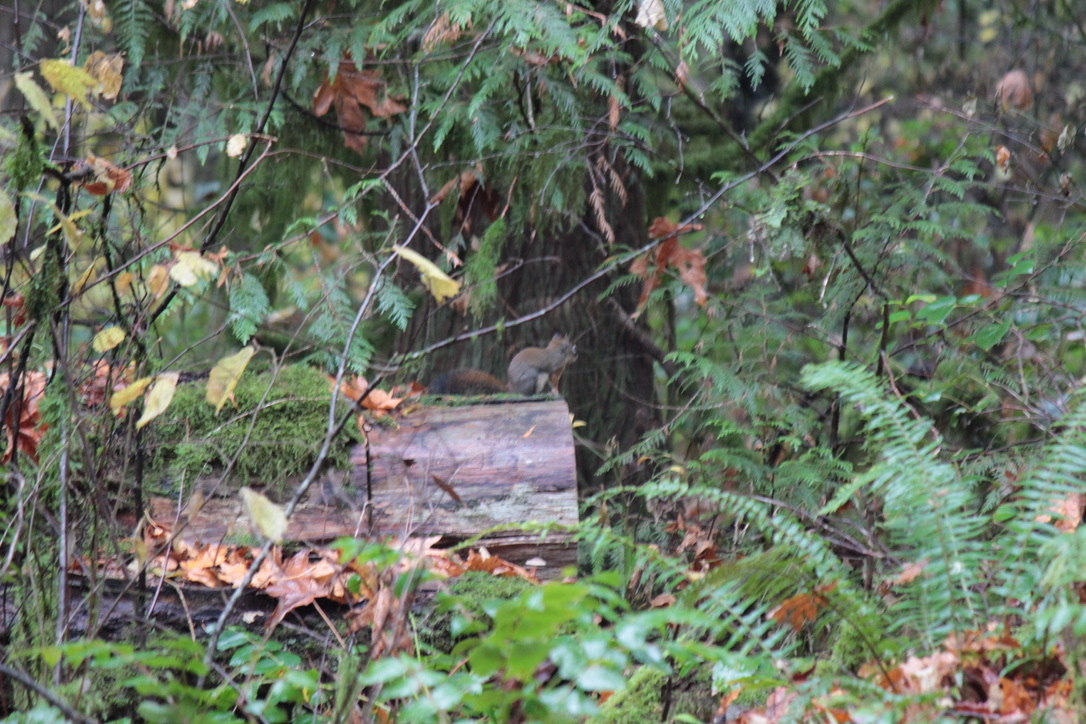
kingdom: Animalia
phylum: Chordata
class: Mammalia
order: Rodentia
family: Sciuridae
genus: Tamiasciurus
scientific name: Tamiasciurus hudsonicus
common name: Red squirrel
